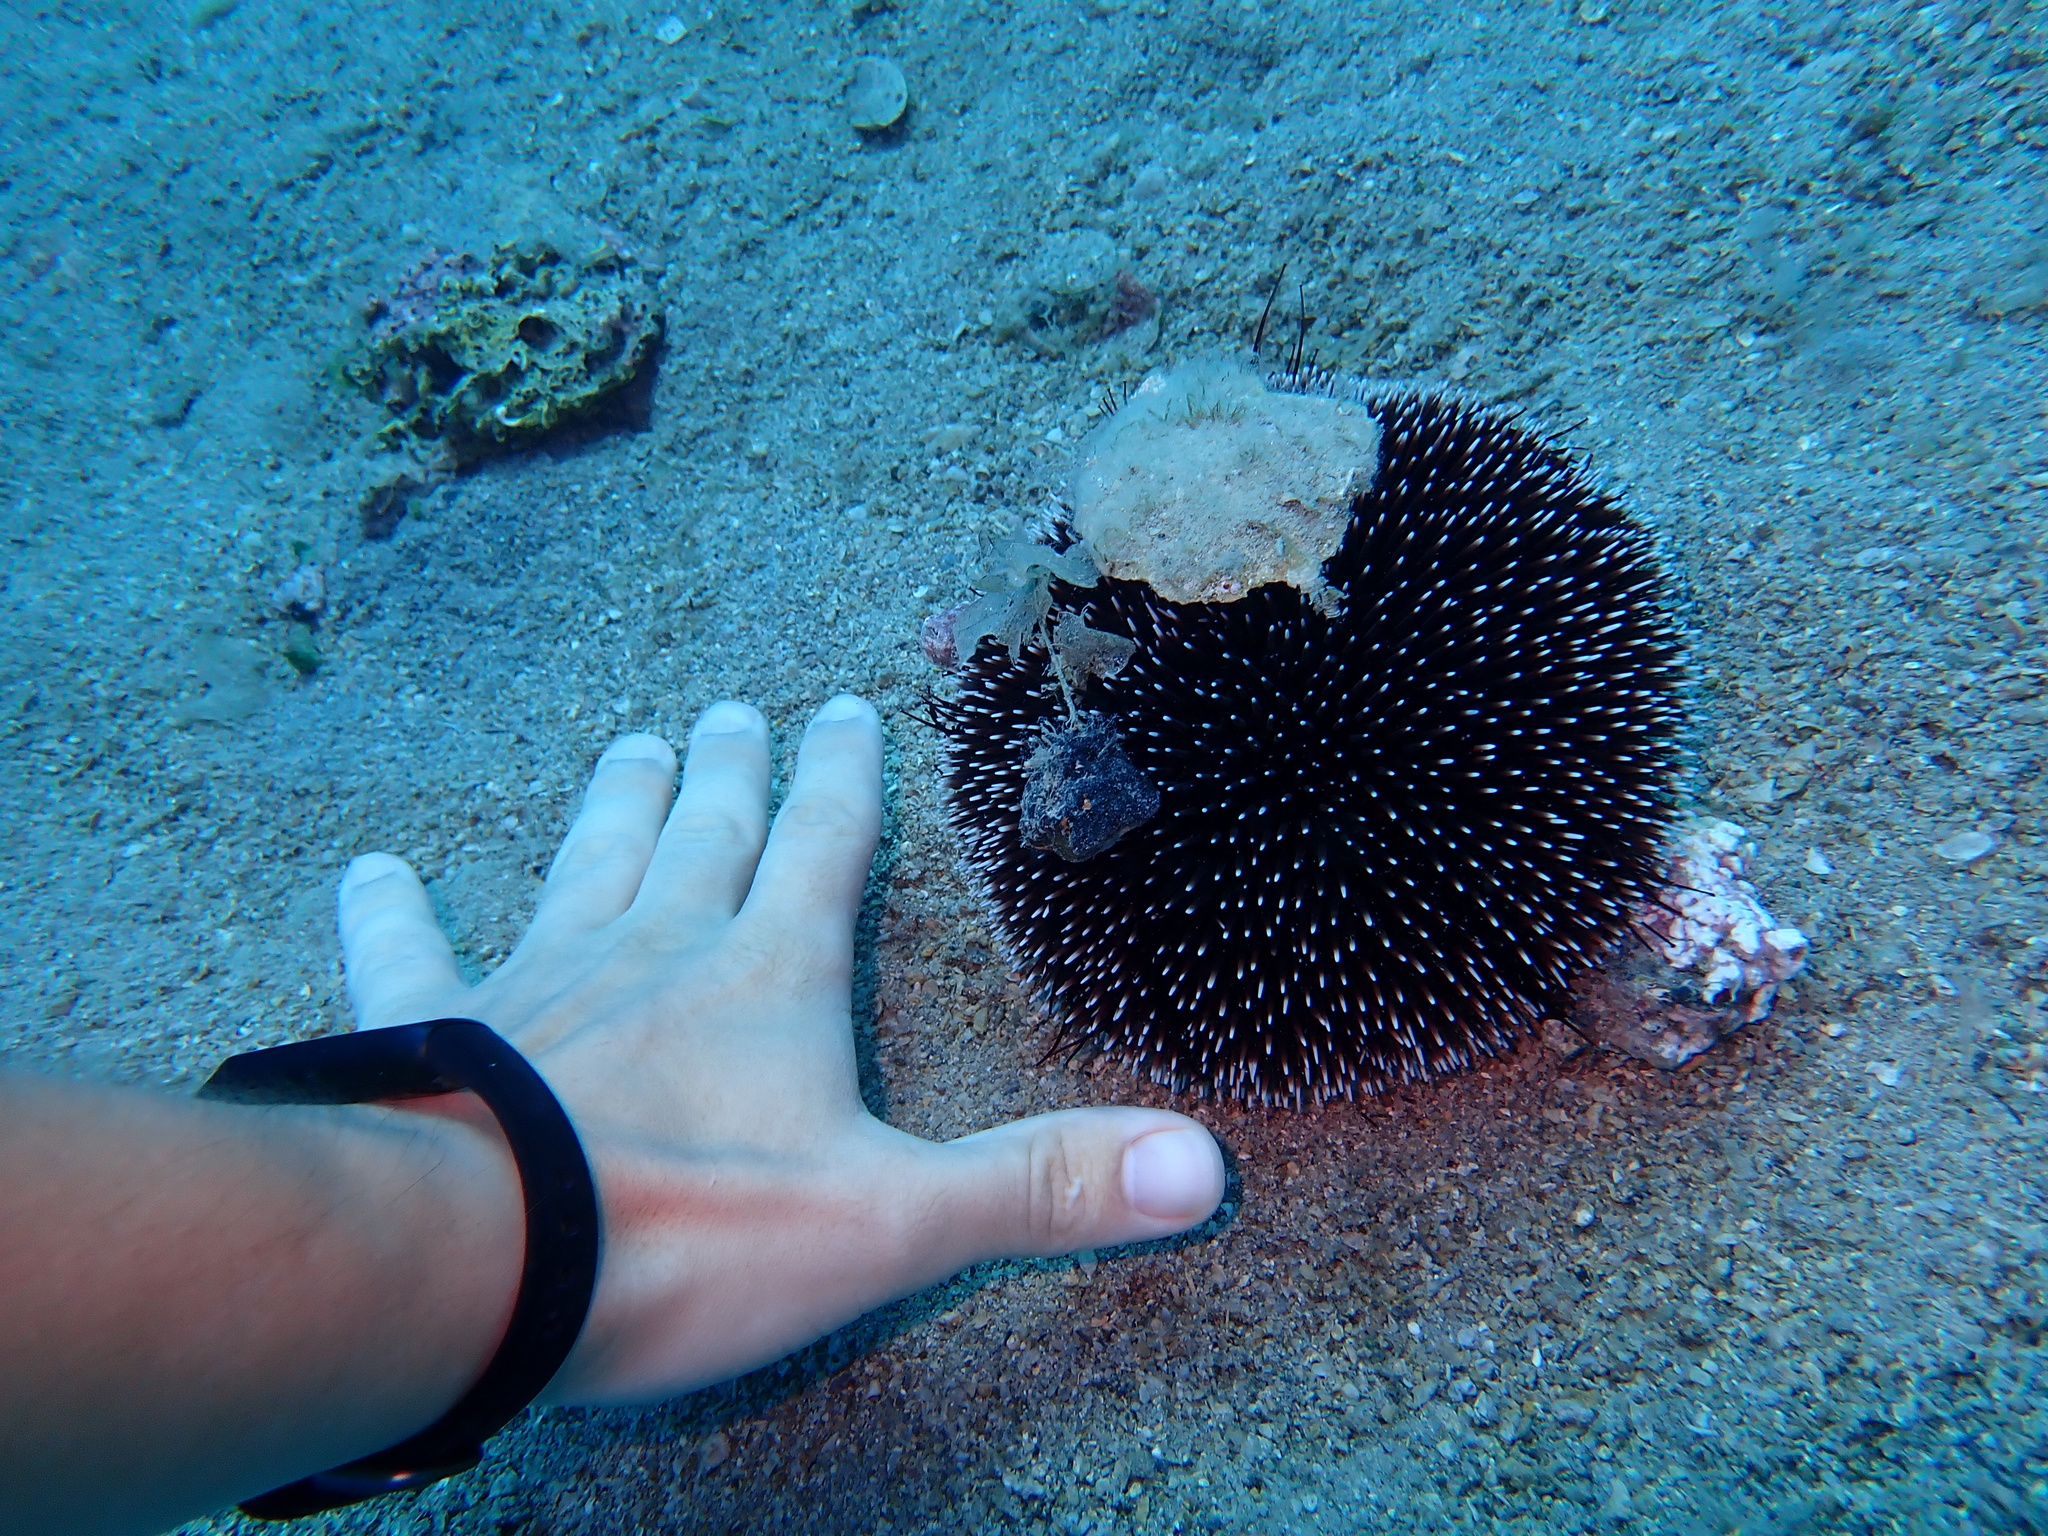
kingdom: Animalia
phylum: Echinodermata
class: Echinoidea
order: Camarodonta
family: Toxopneustidae
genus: Sphaerechinus
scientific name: Sphaerechinus granularis
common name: Violet sea urchin
